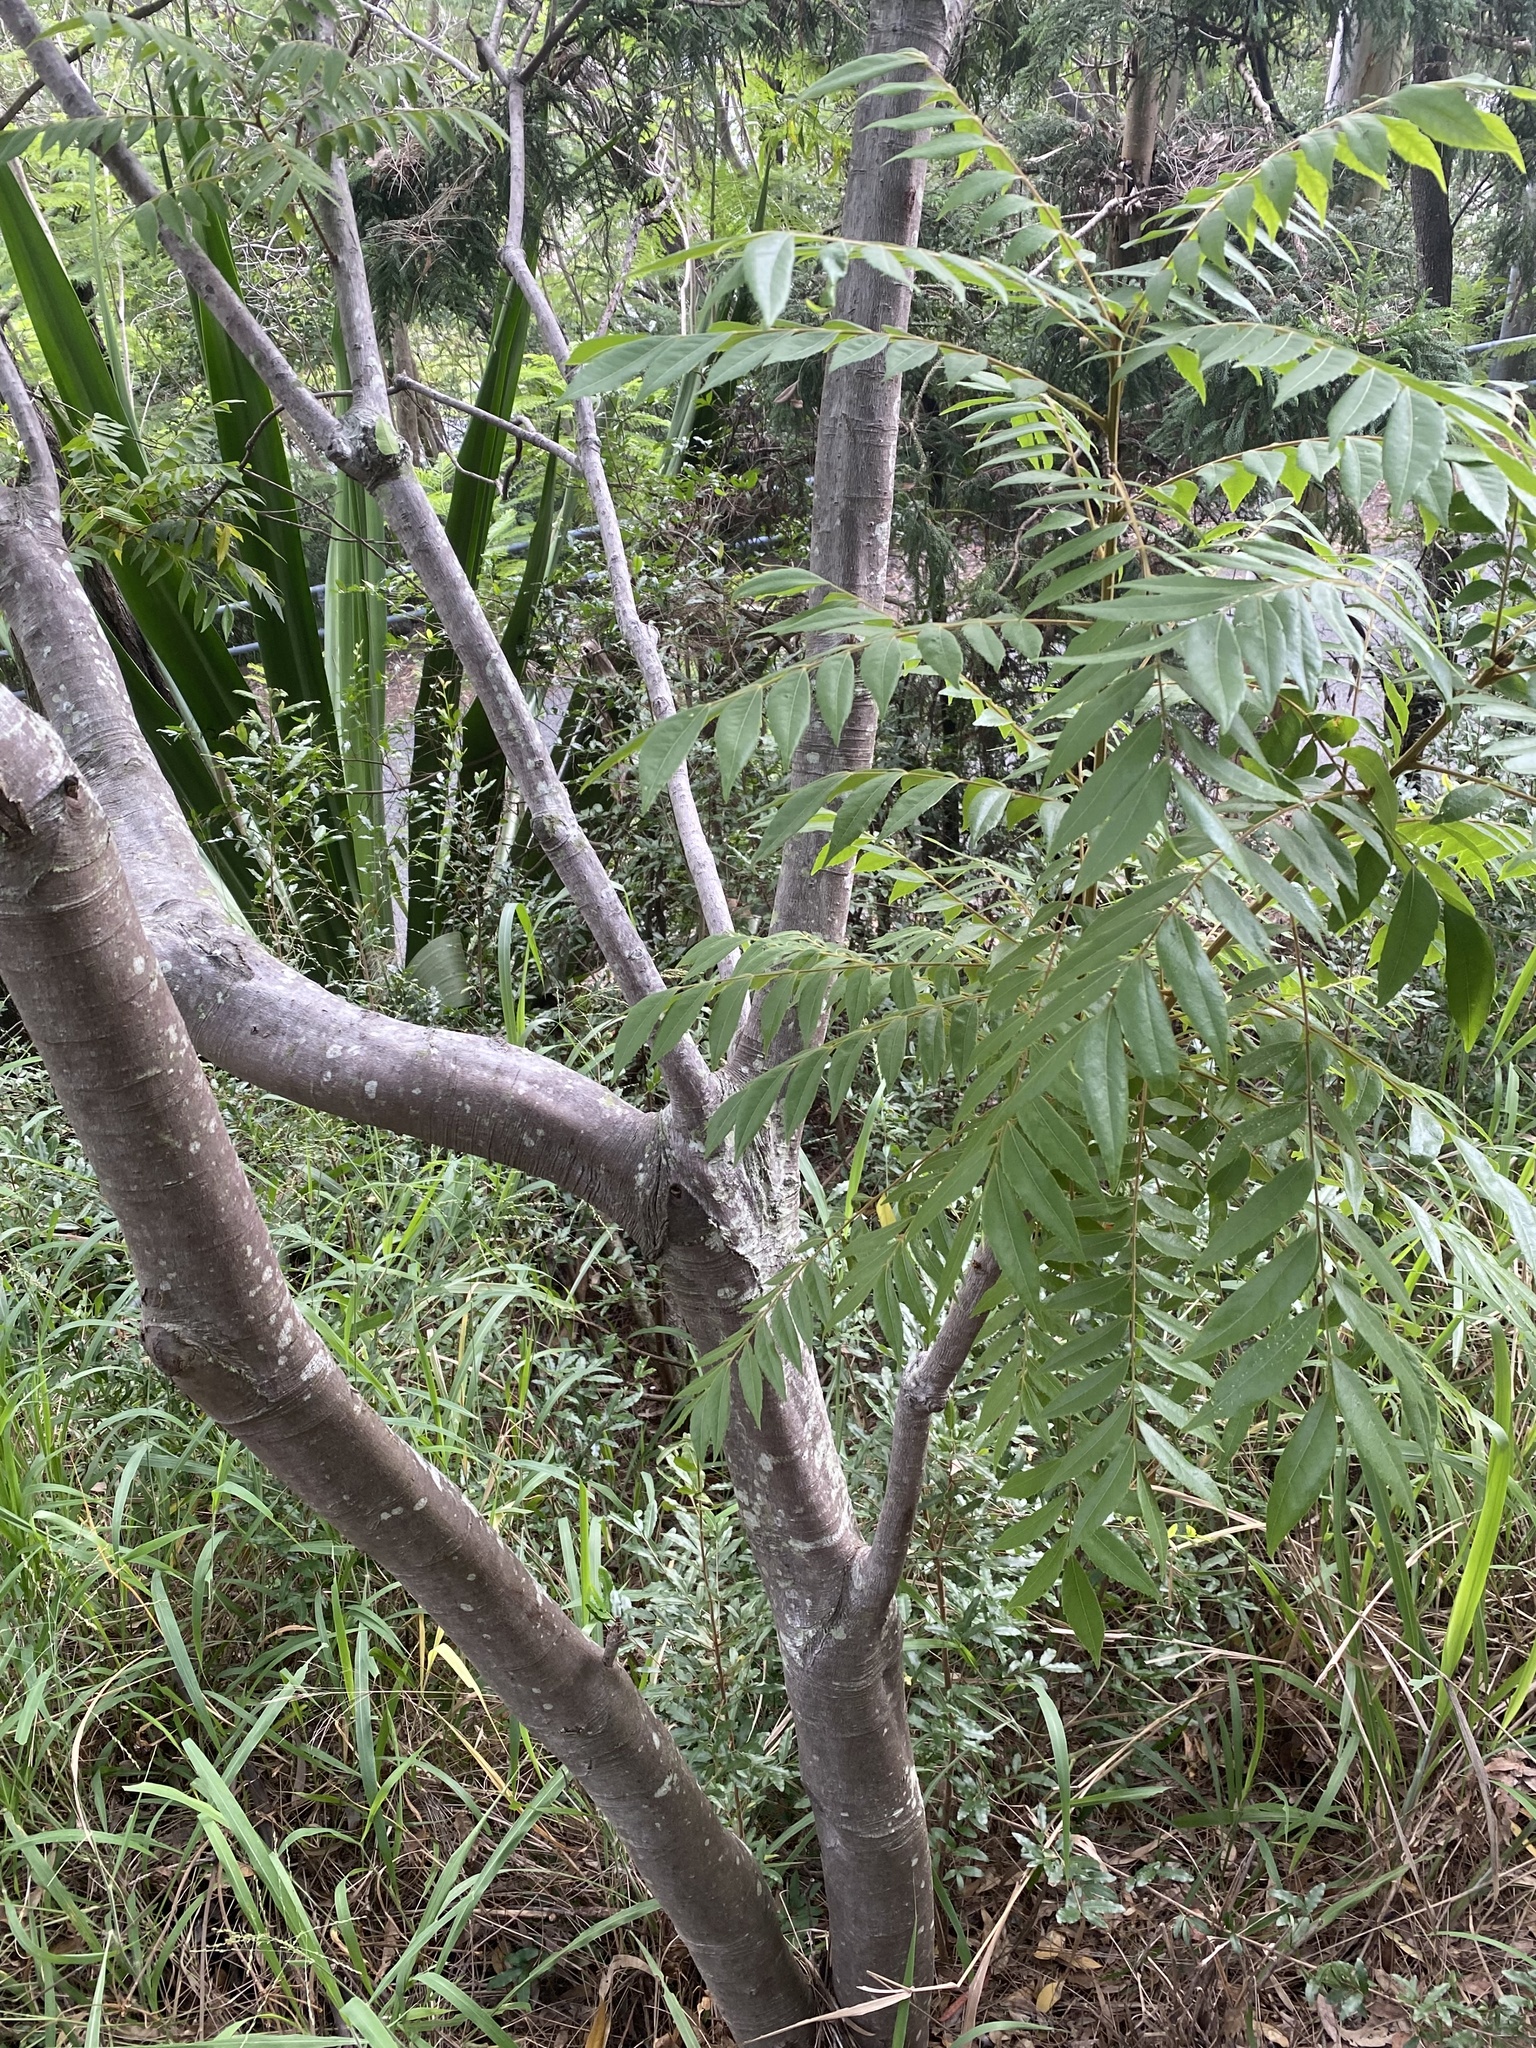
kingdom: Plantae
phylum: Tracheophyta
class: Magnoliopsida
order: Sapindales
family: Sapindaceae
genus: Jagera
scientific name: Jagera pseudorhus
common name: Fern-leaf-tamarind
